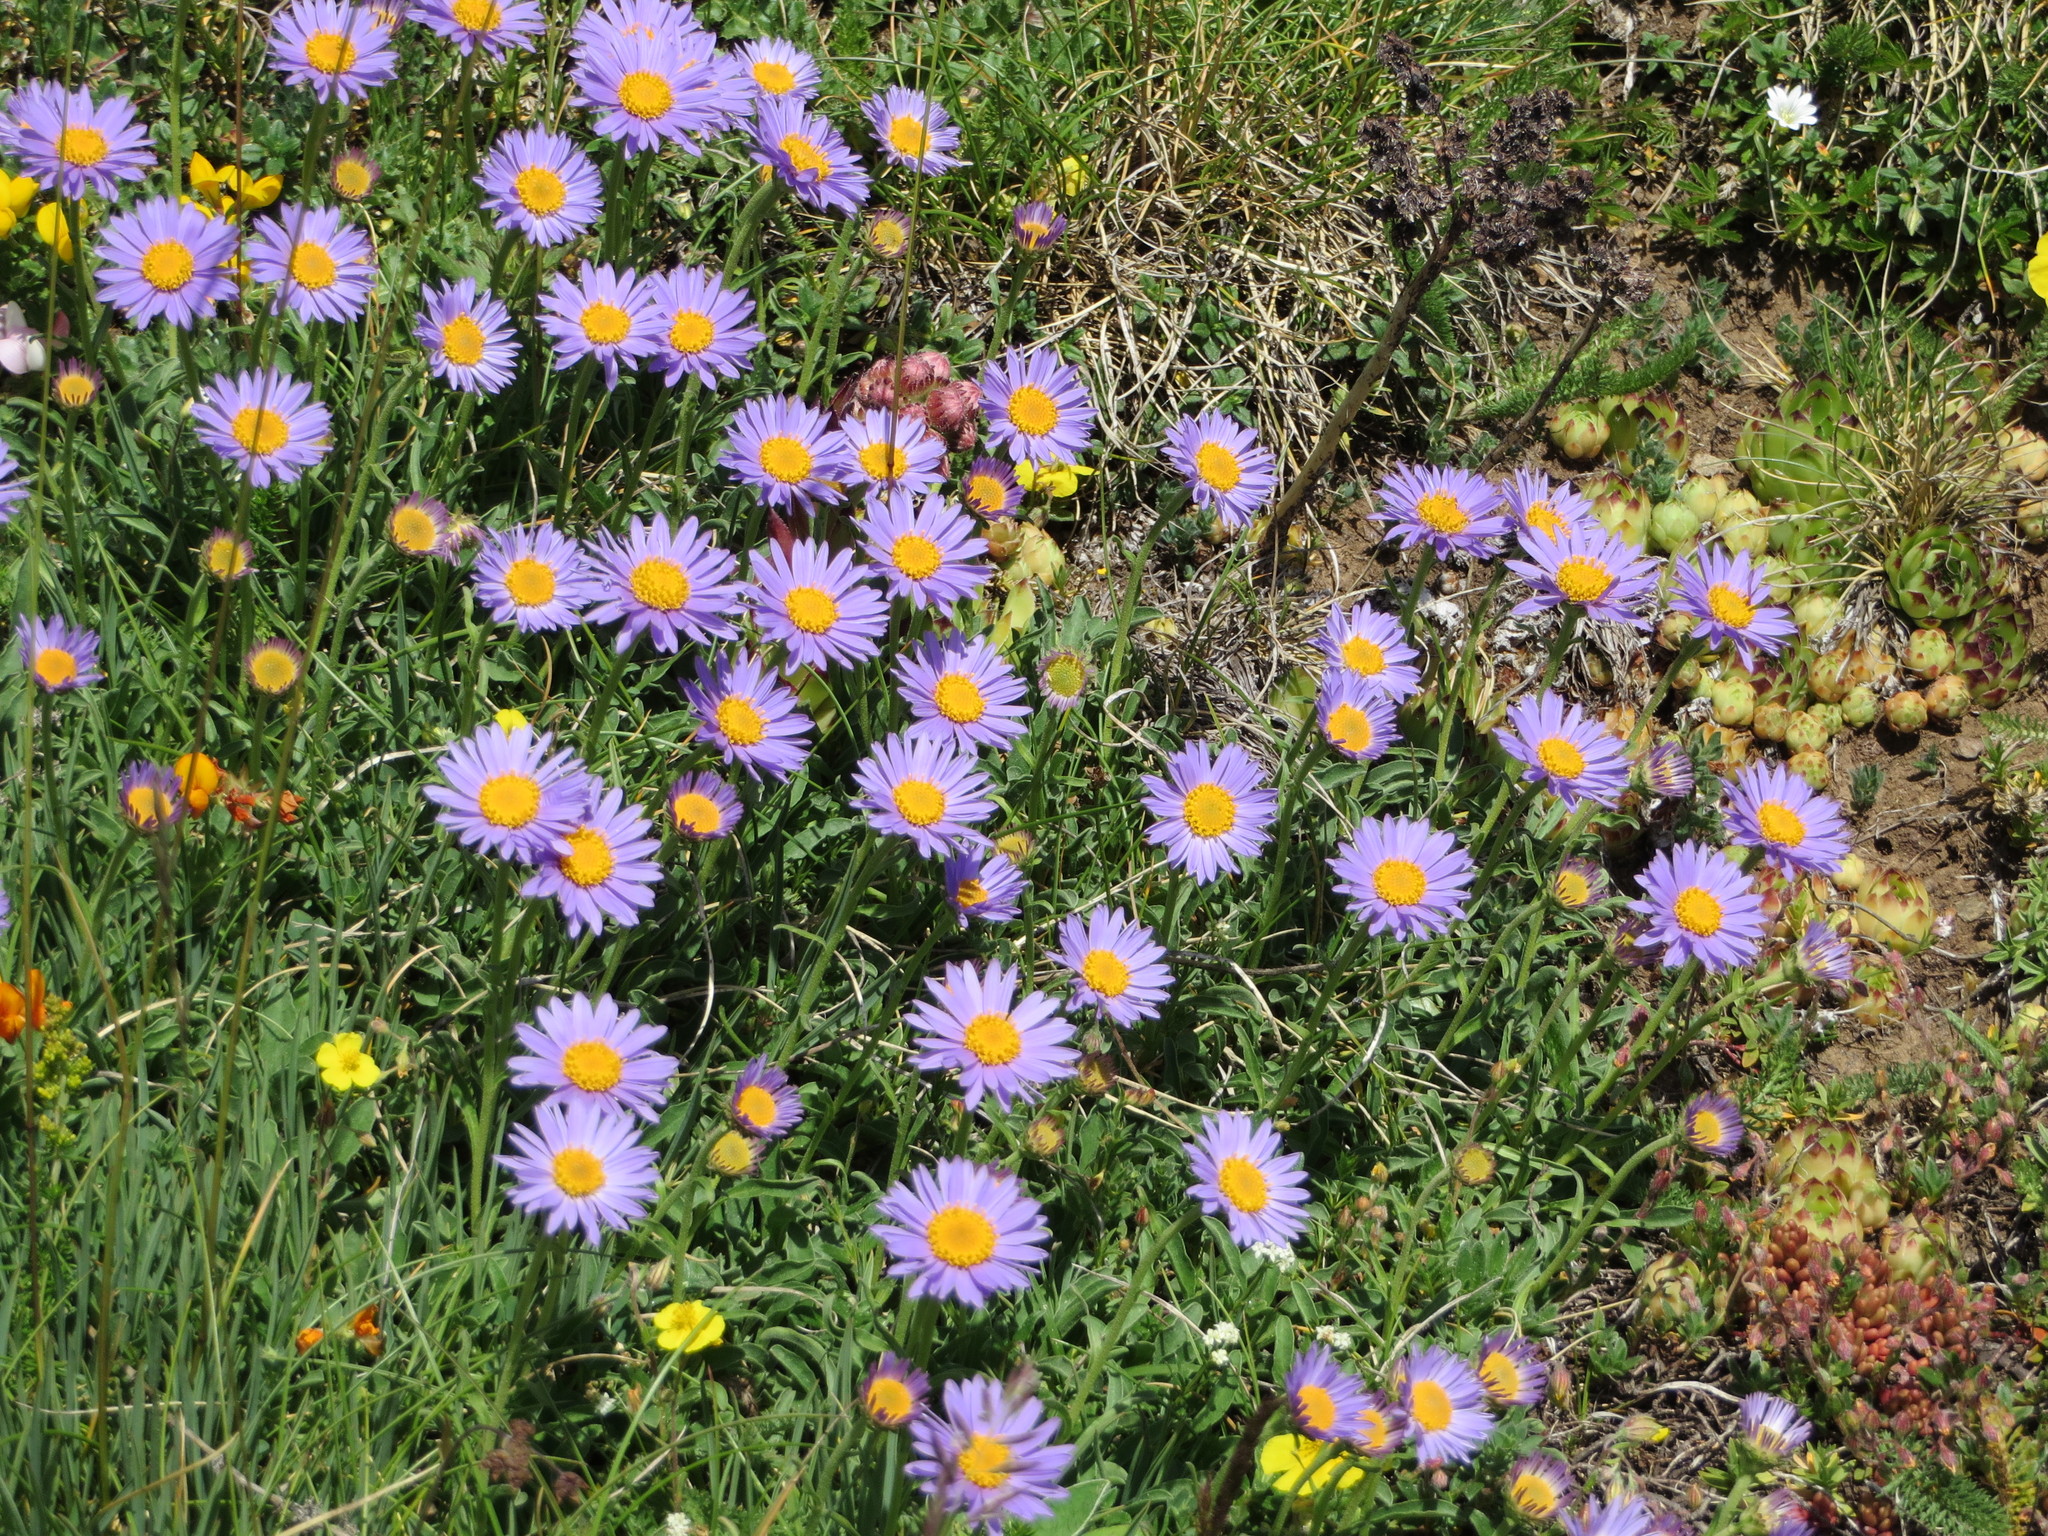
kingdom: Plantae
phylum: Tracheophyta
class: Magnoliopsida
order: Asterales
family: Asteraceae
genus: Aster
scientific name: Aster alpinus
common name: Alpine aster
